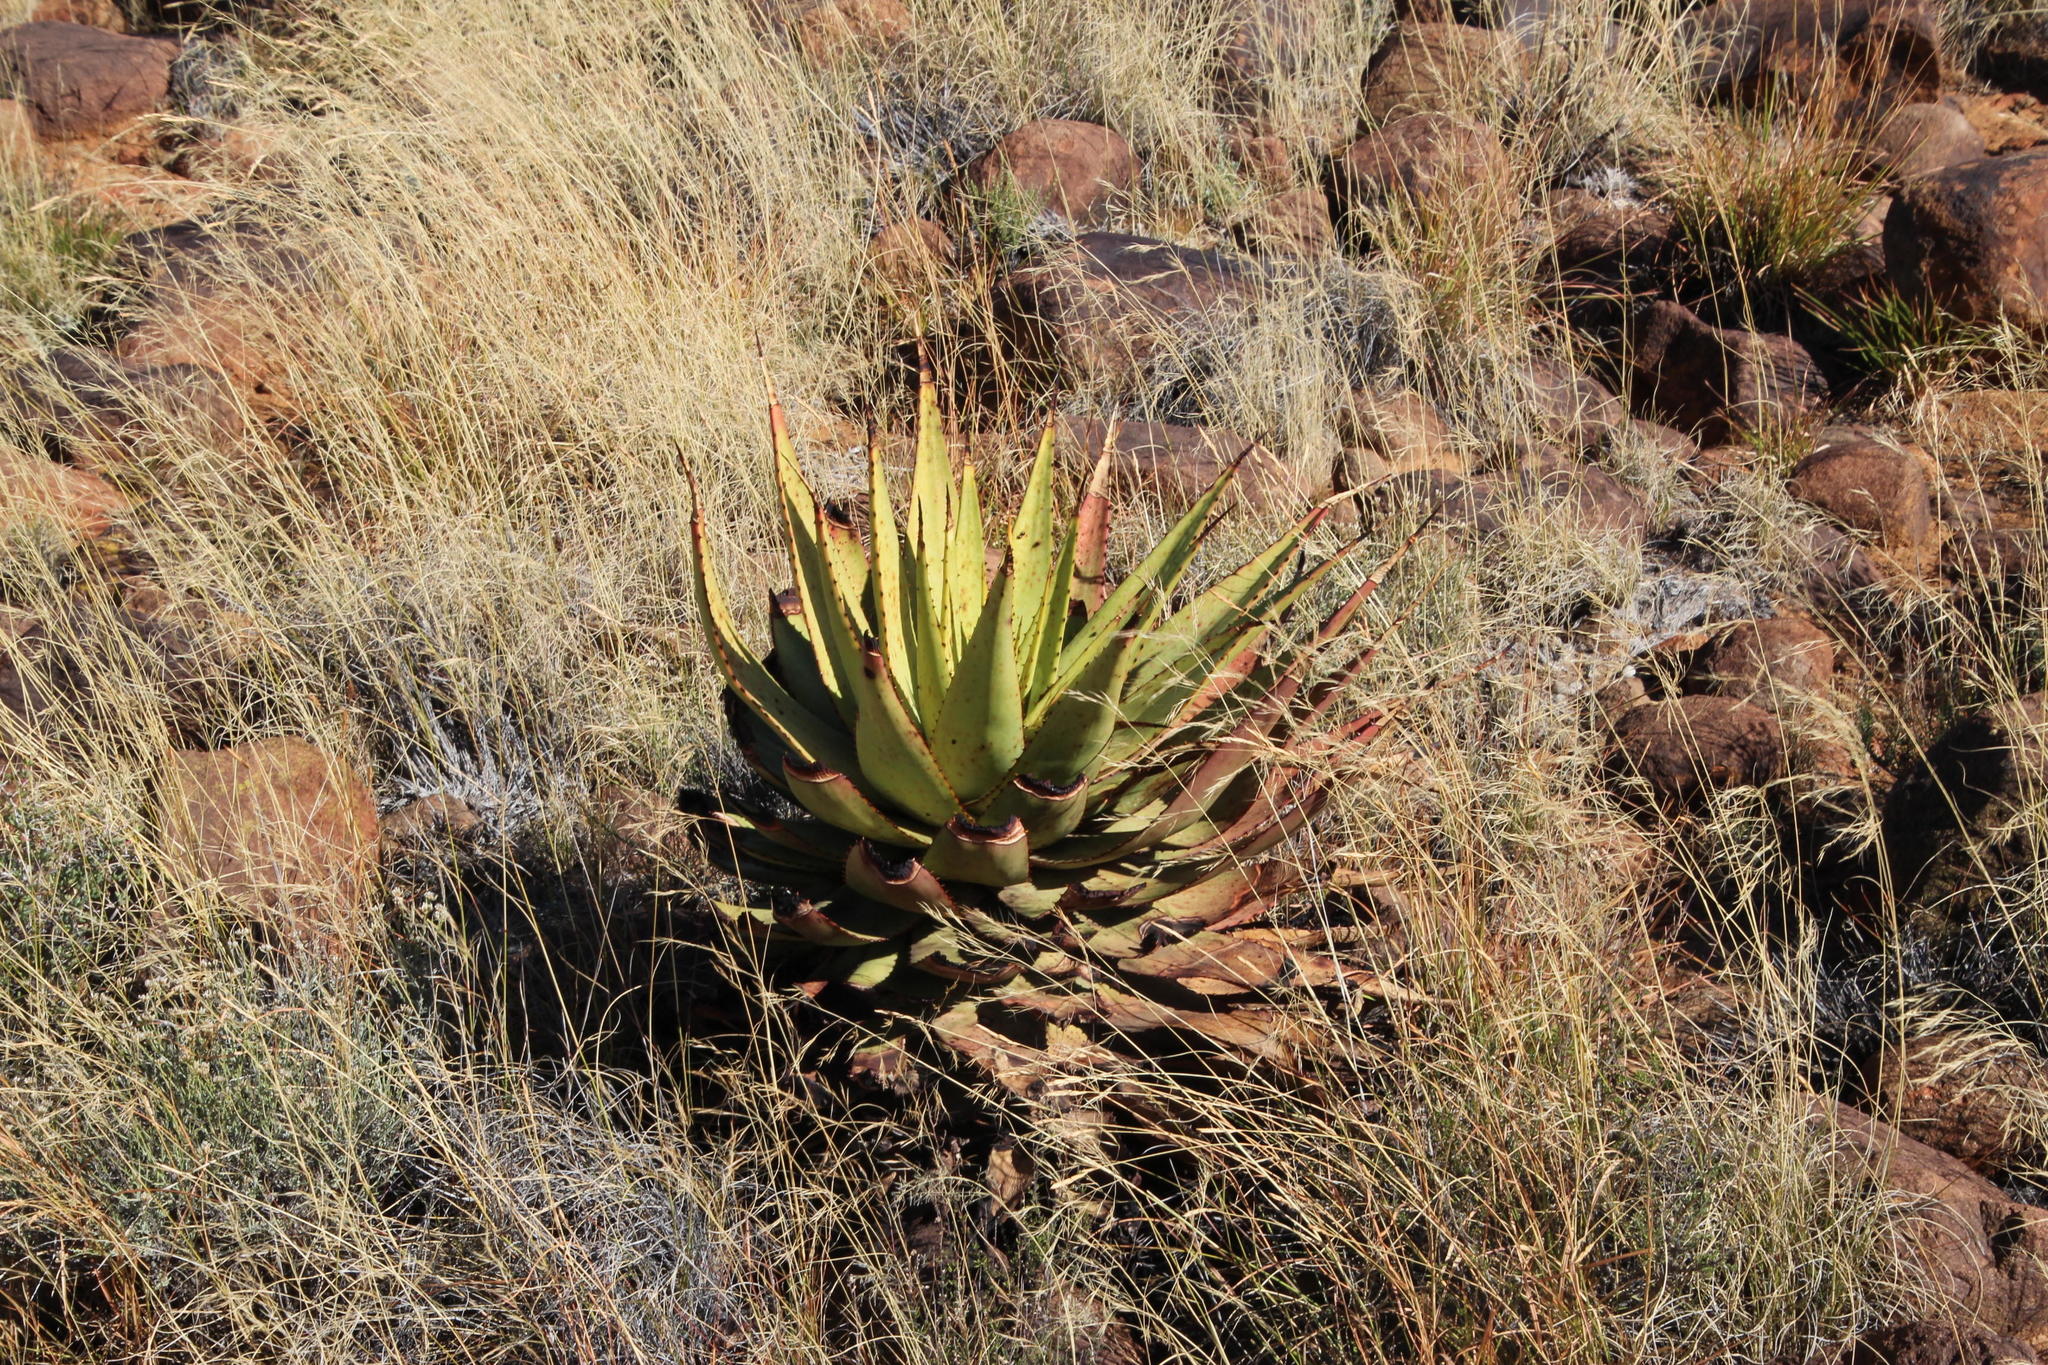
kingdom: Plantae
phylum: Tracheophyta
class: Liliopsida
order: Asparagales
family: Asphodelaceae
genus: Aloe
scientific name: Aloe broomii
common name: Berg alwyn
